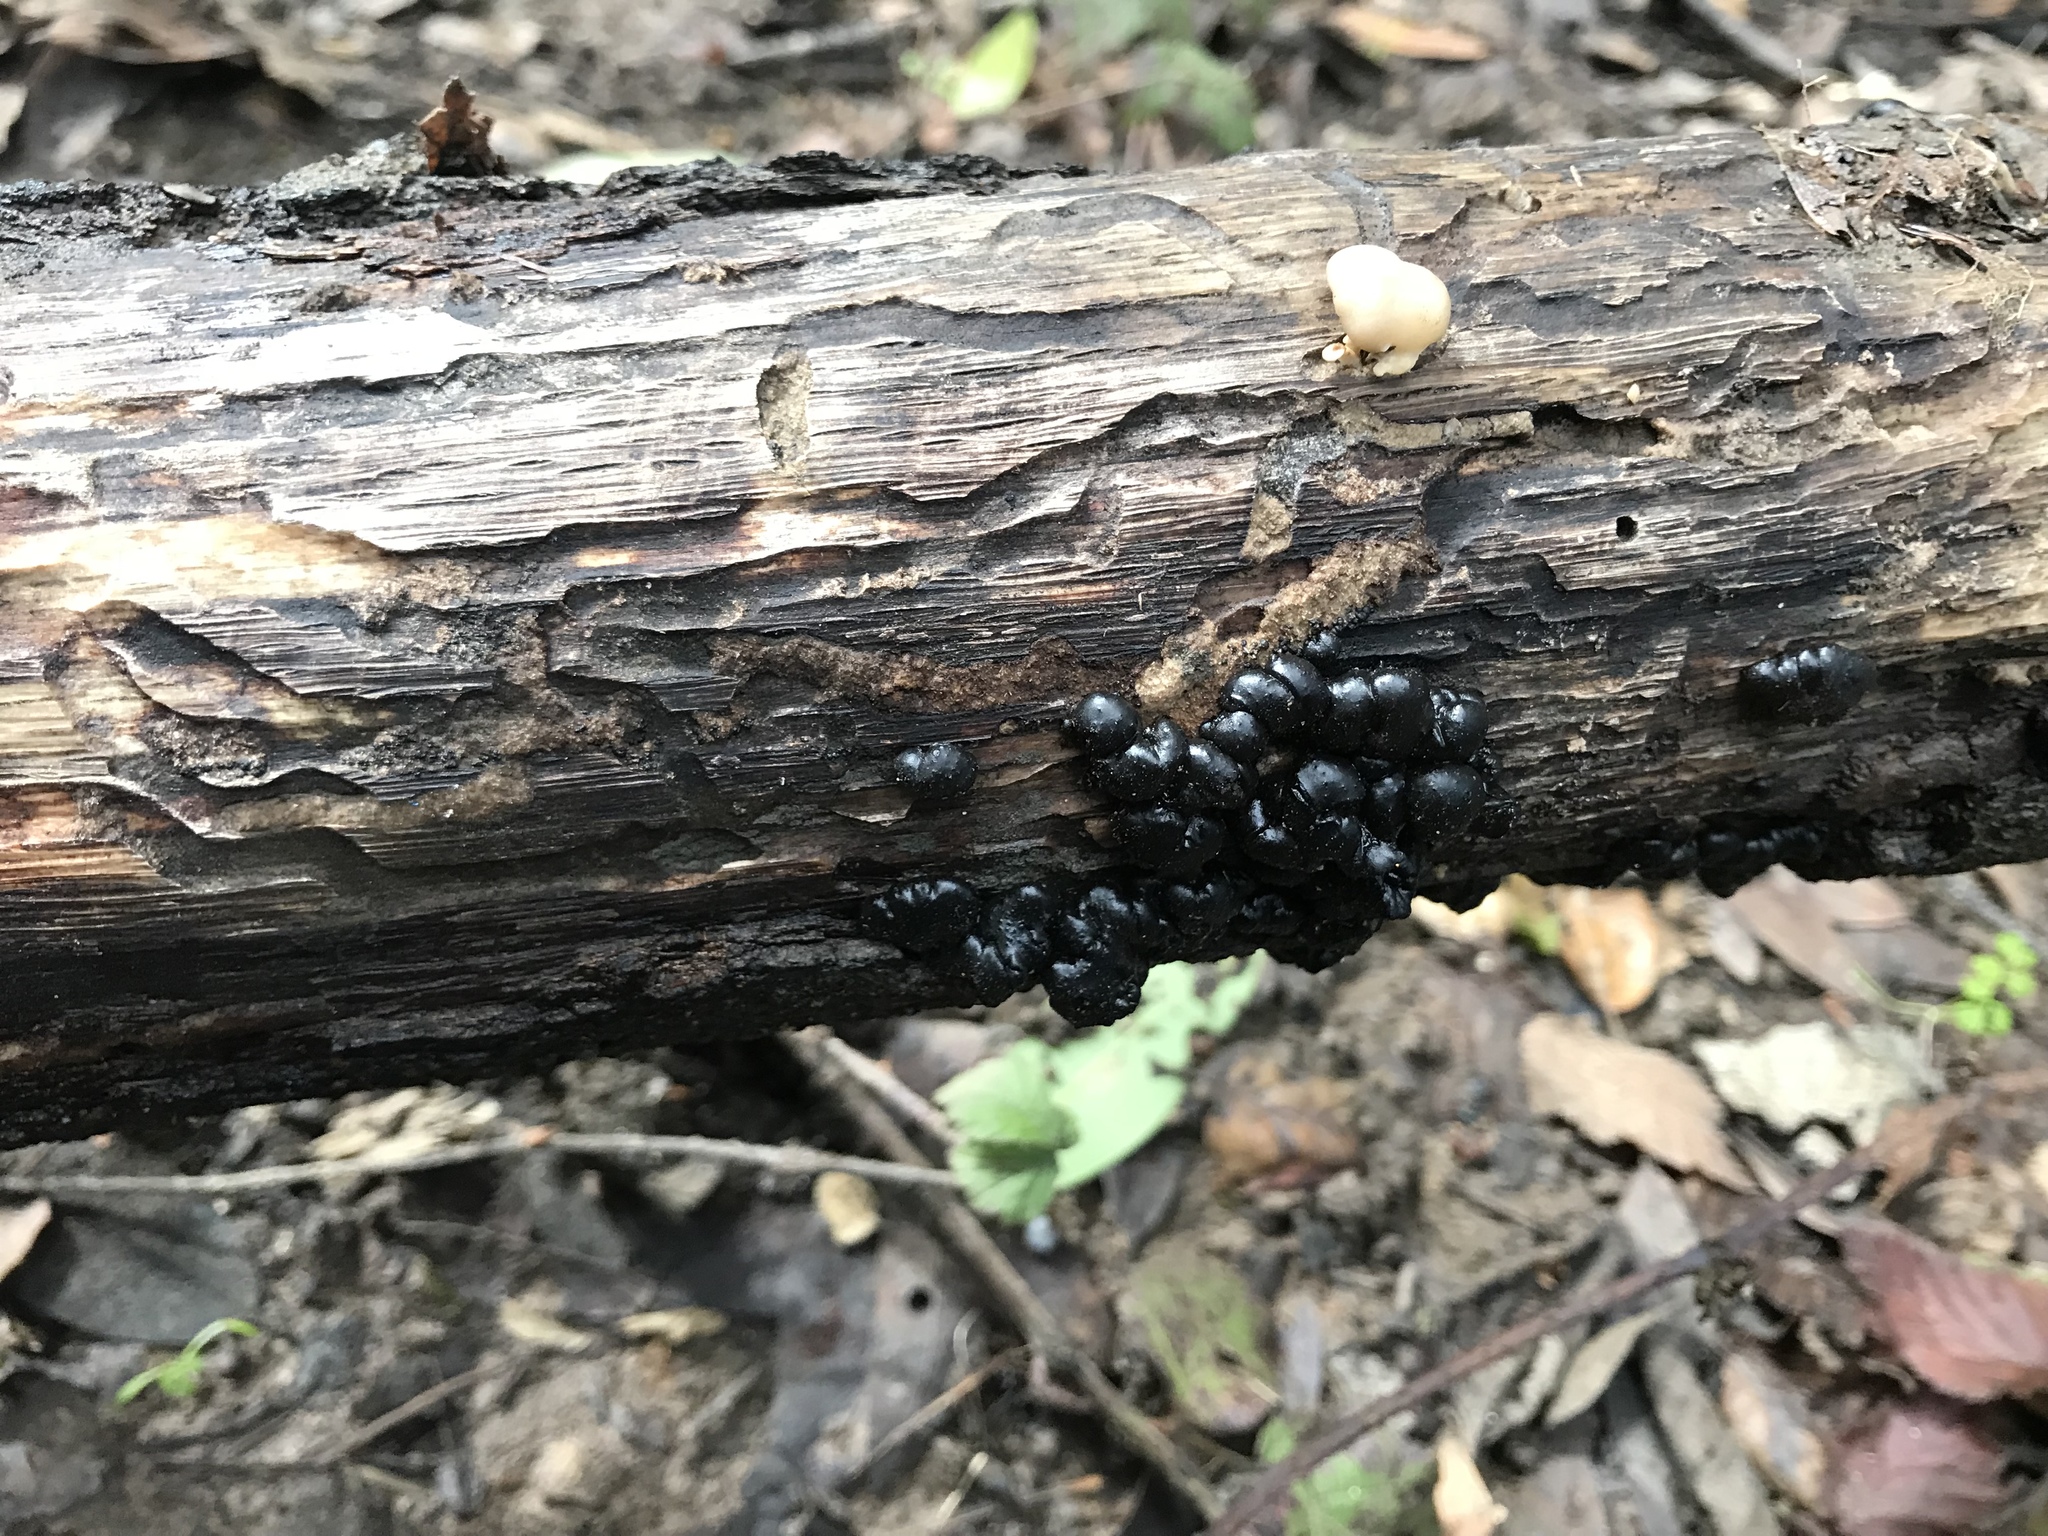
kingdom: Fungi
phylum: Basidiomycota
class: Agaricomycetes
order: Auriculariales
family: Auriculariaceae
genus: Exidia
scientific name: Exidia glandulosa
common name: Witches' butter
